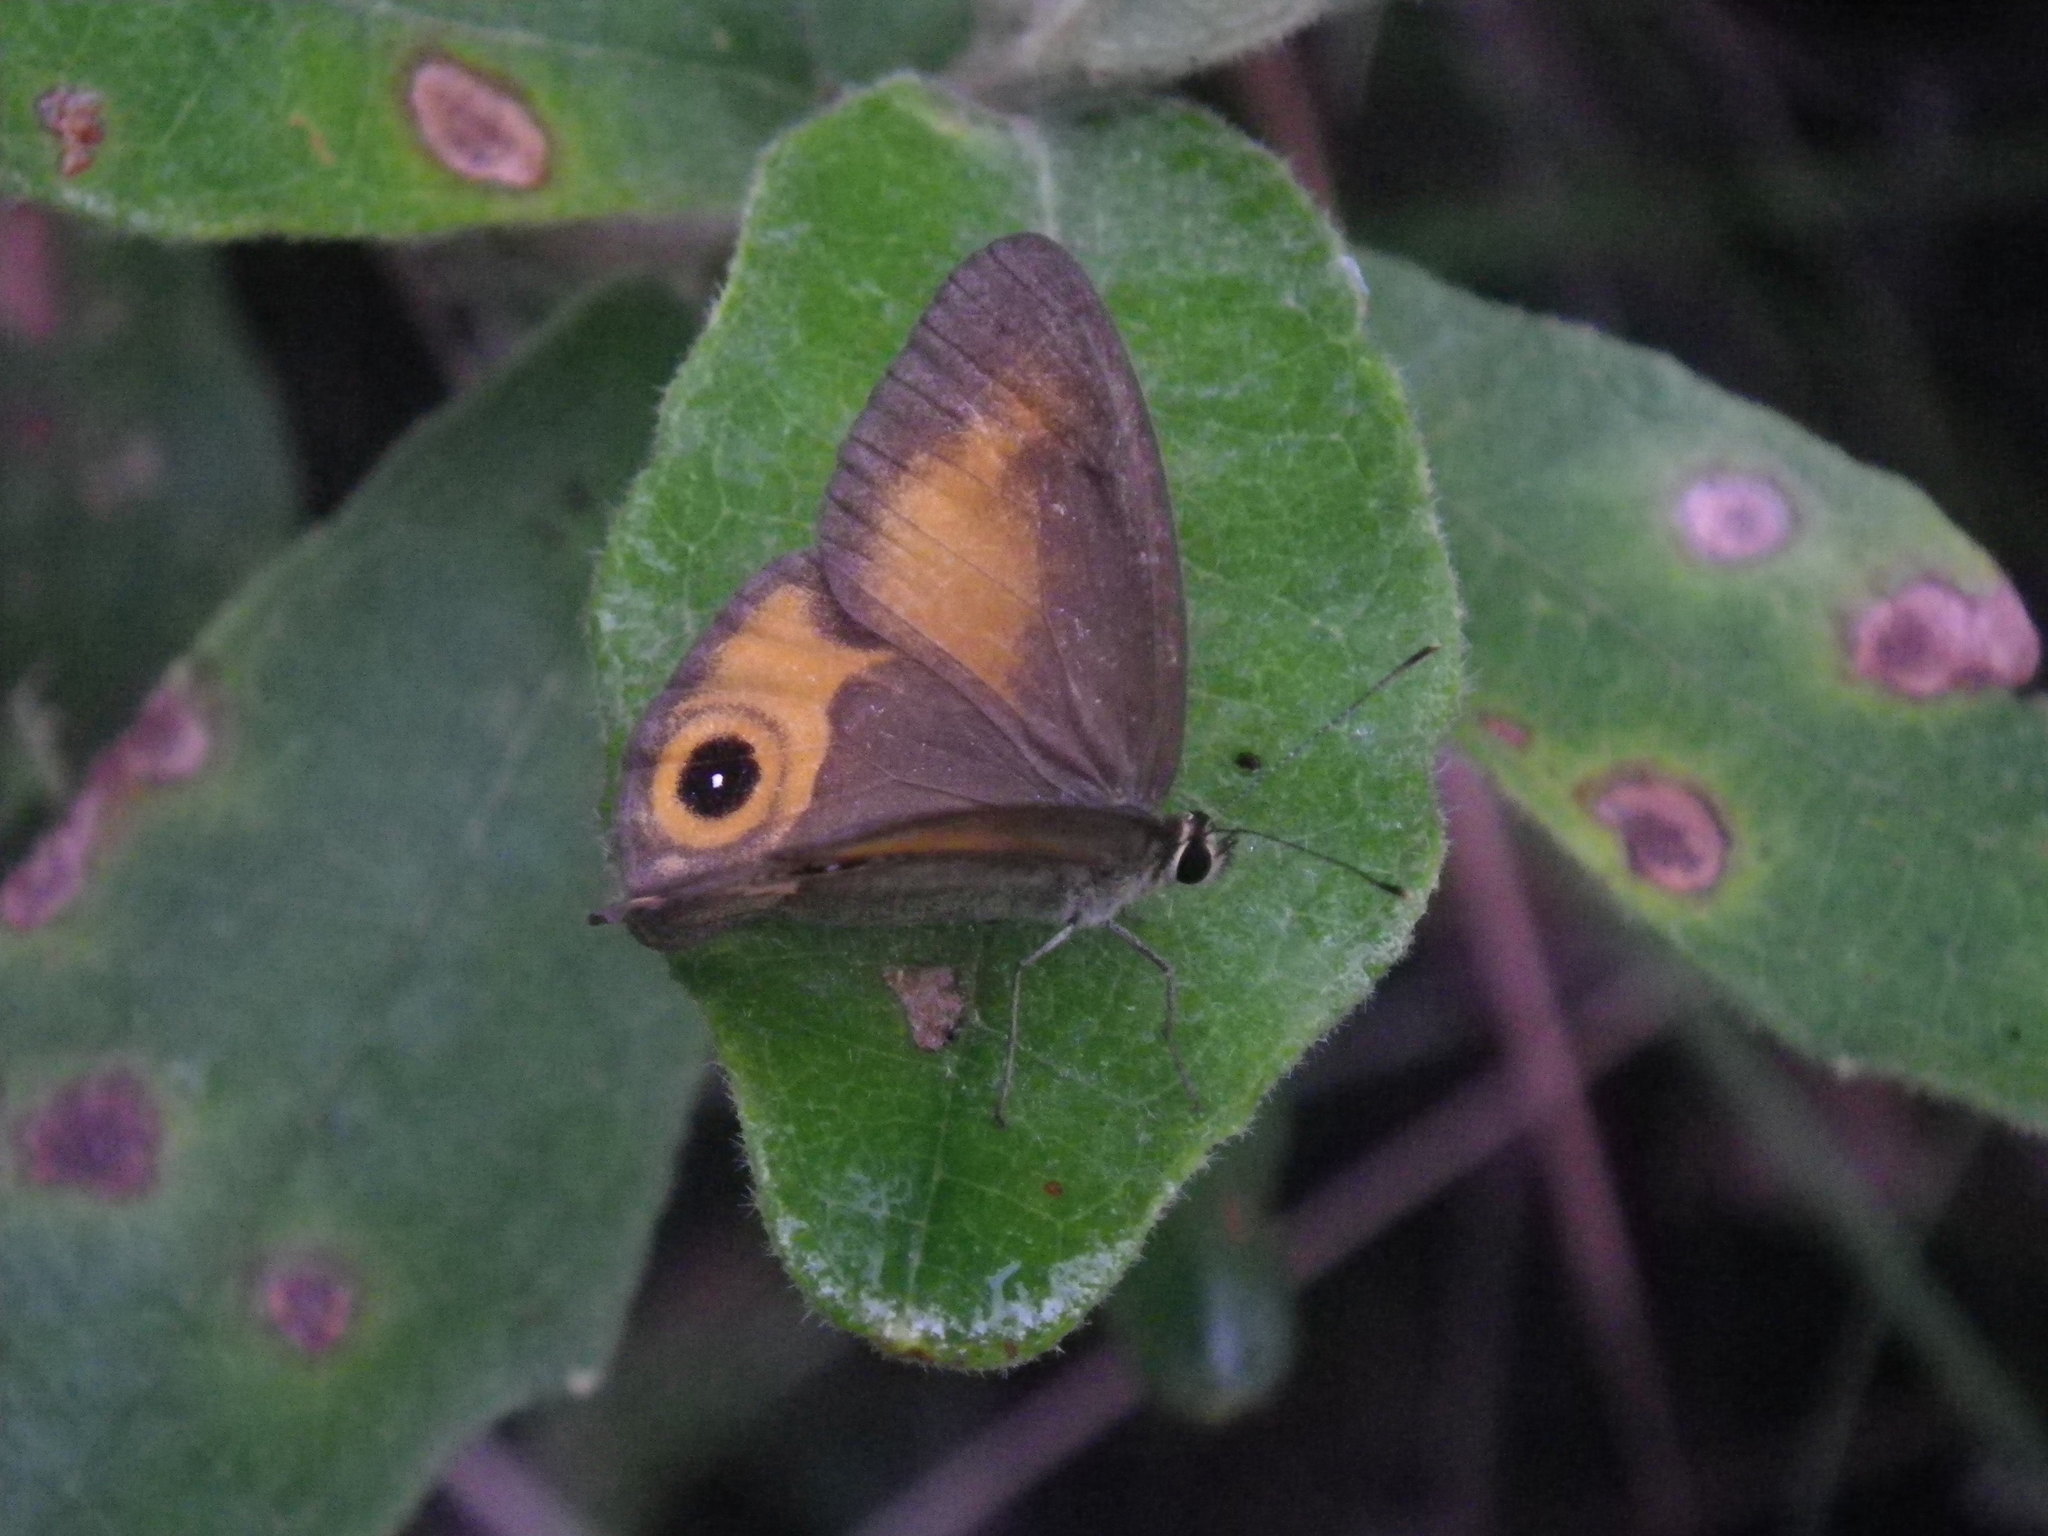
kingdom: Animalia
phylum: Arthropoda
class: Insecta
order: Lepidoptera
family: Nymphalidae
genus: Hypocysta
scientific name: Hypocysta irius
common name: Orange-streaked ringlet
